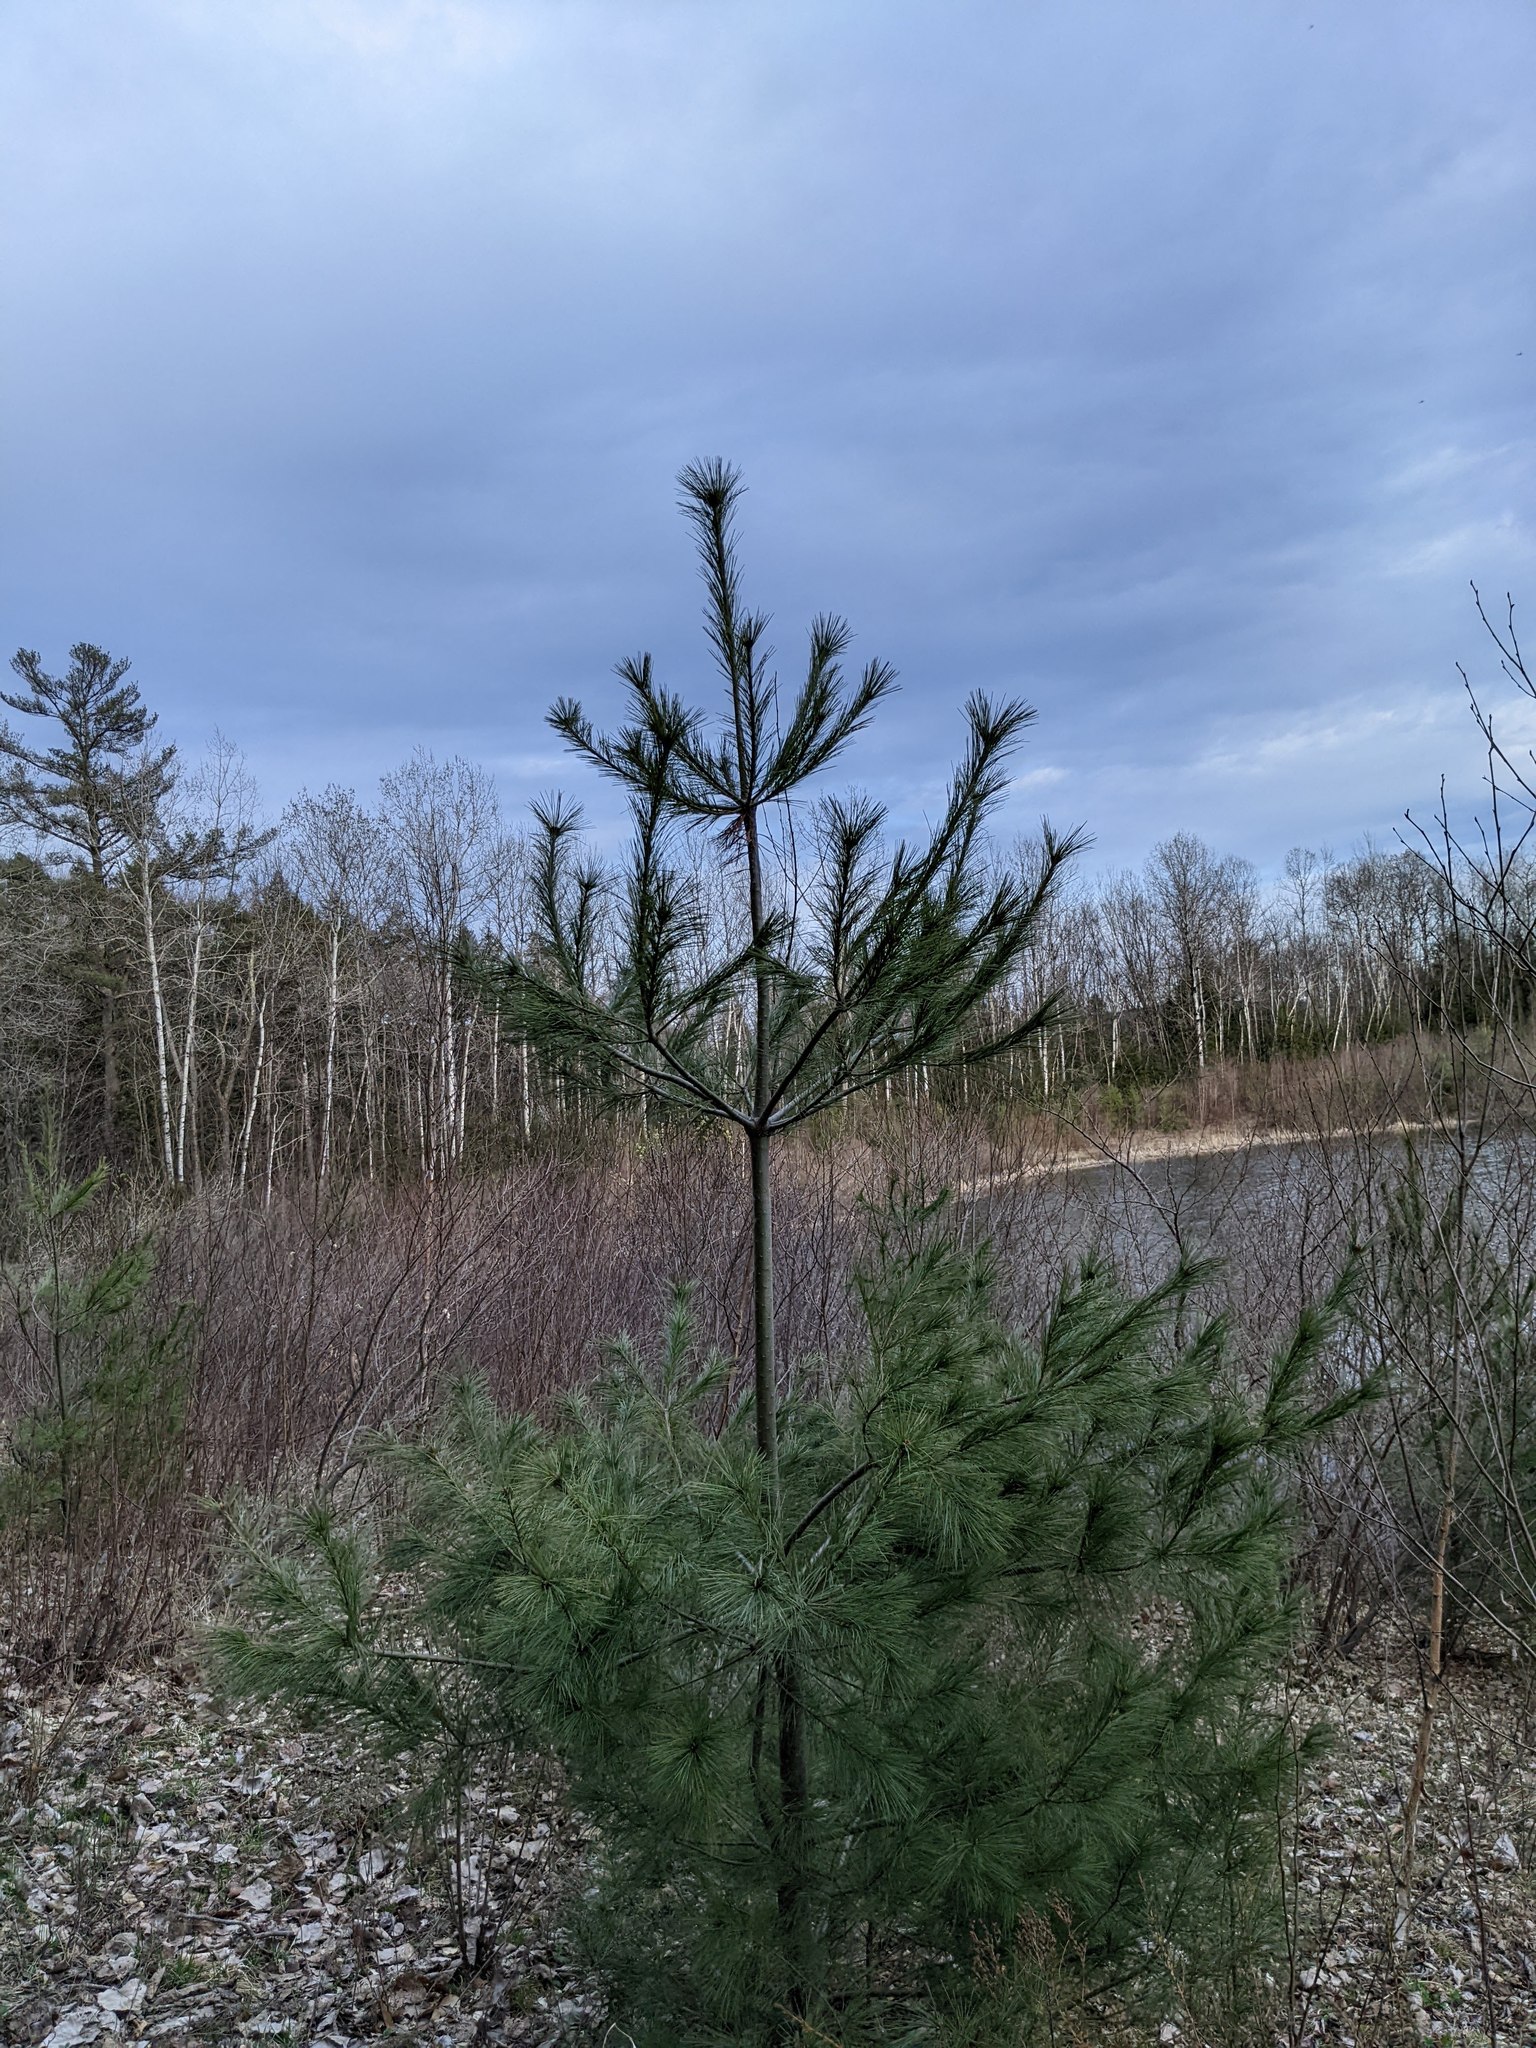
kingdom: Plantae
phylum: Tracheophyta
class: Pinopsida
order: Pinales
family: Pinaceae
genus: Pinus
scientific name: Pinus strobus
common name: Weymouth pine
